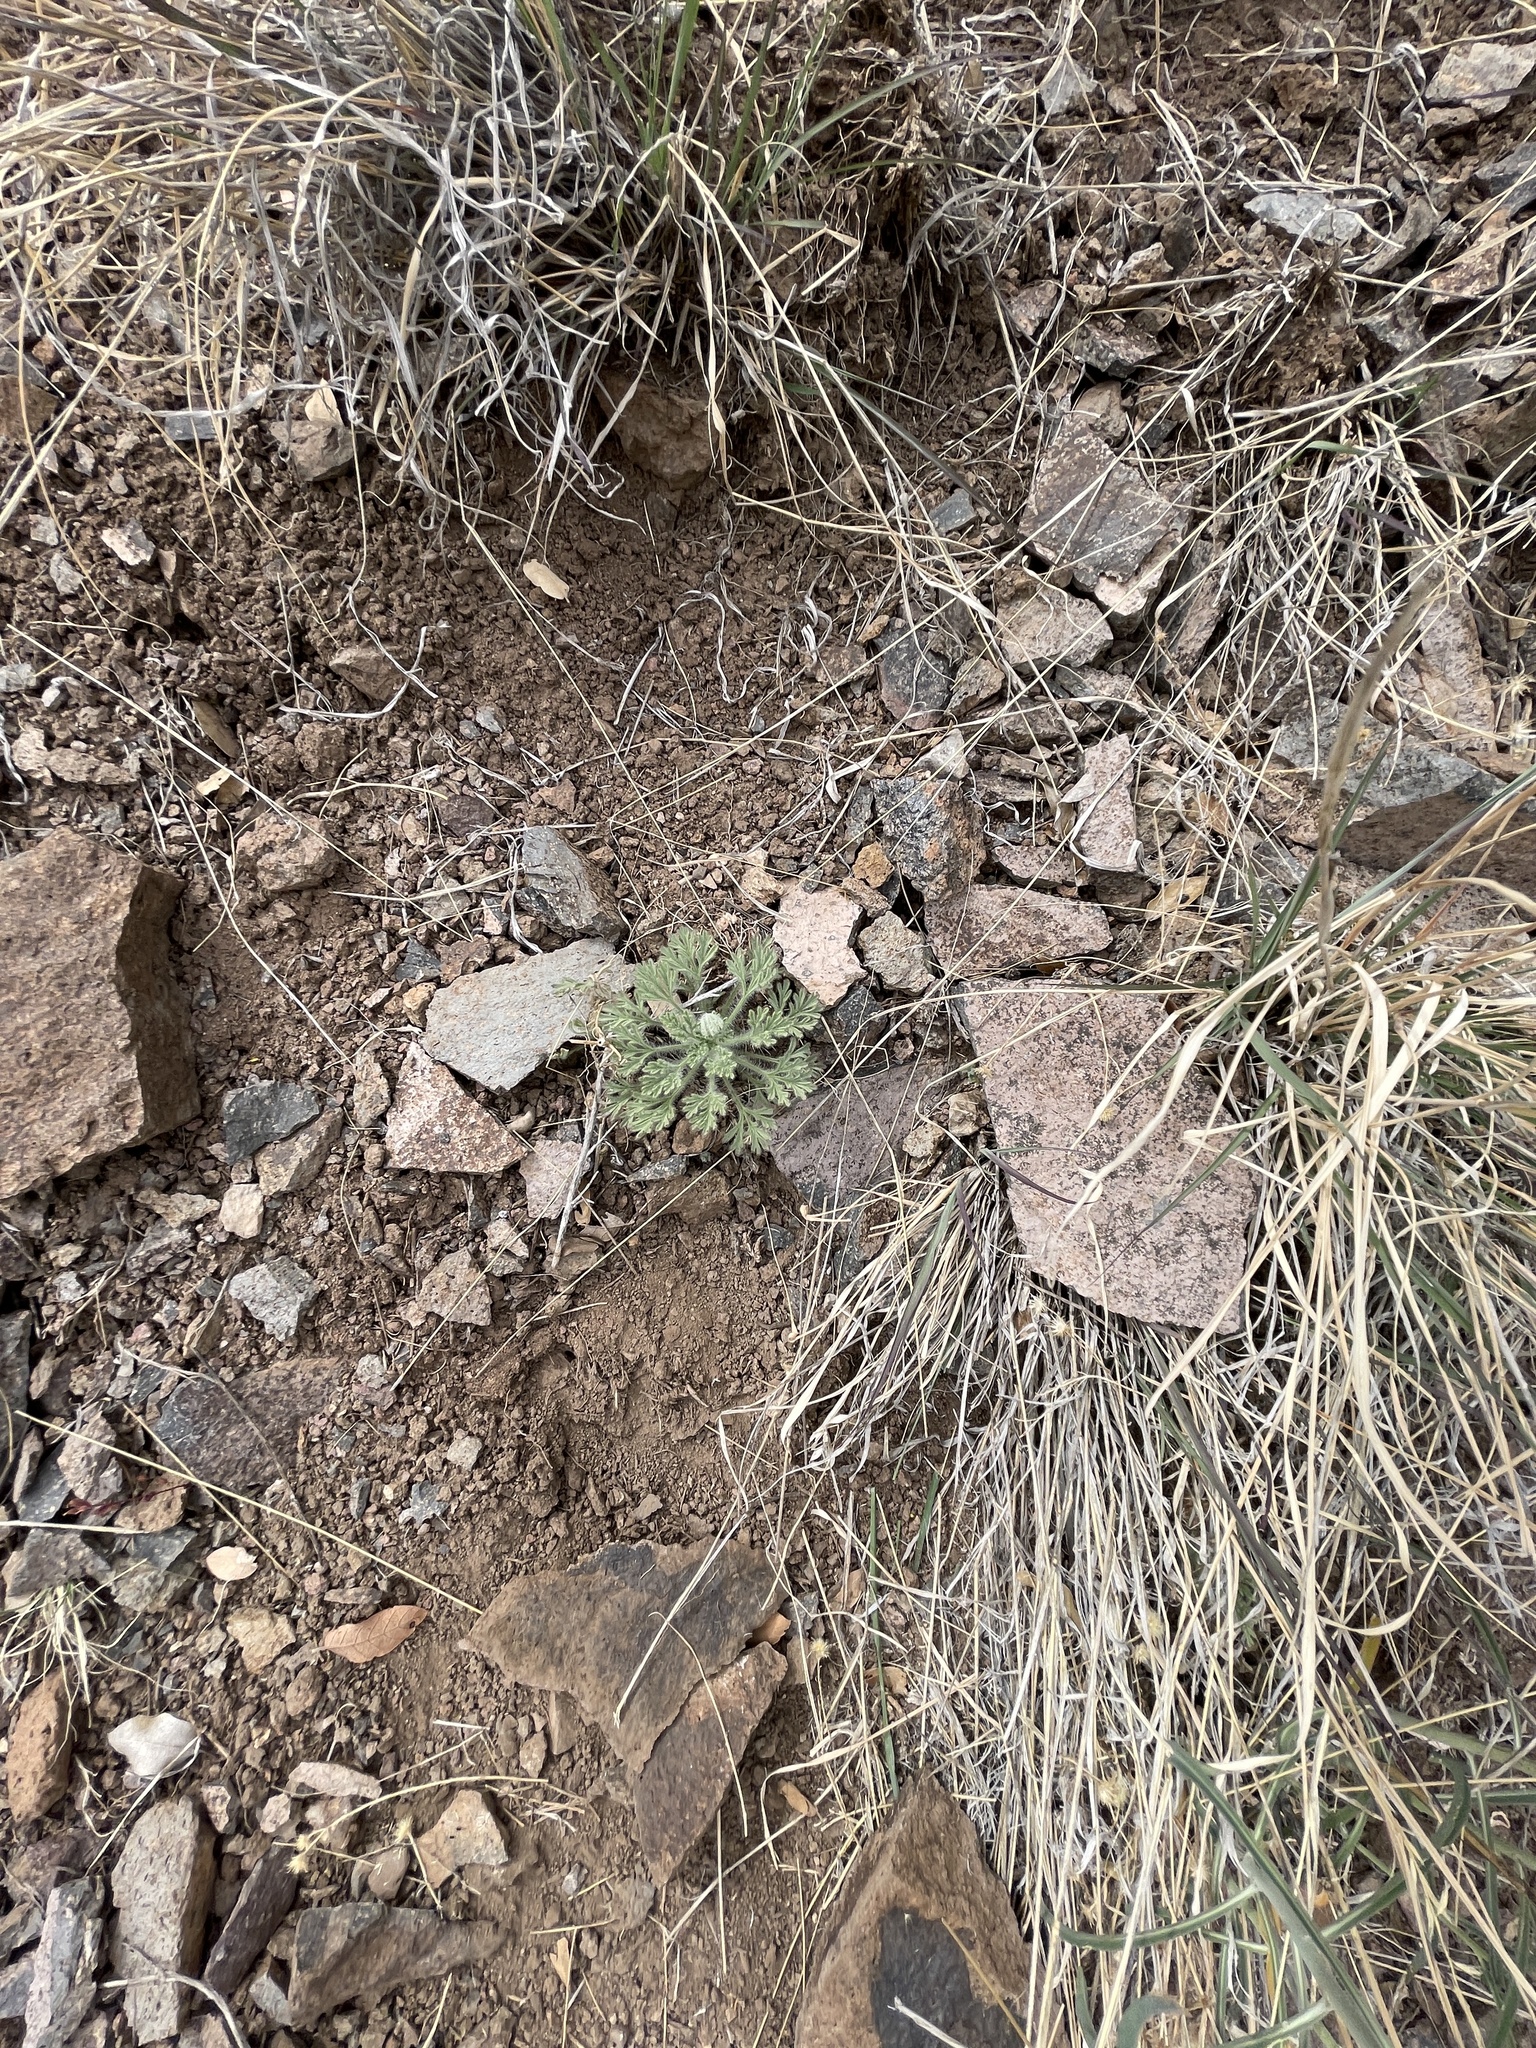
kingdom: Plantae
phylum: Tracheophyta
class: Magnoliopsida
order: Asterales
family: Asteraceae
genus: Ambrosia
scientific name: Ambrosia psilostachya
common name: Perennial ragweed
